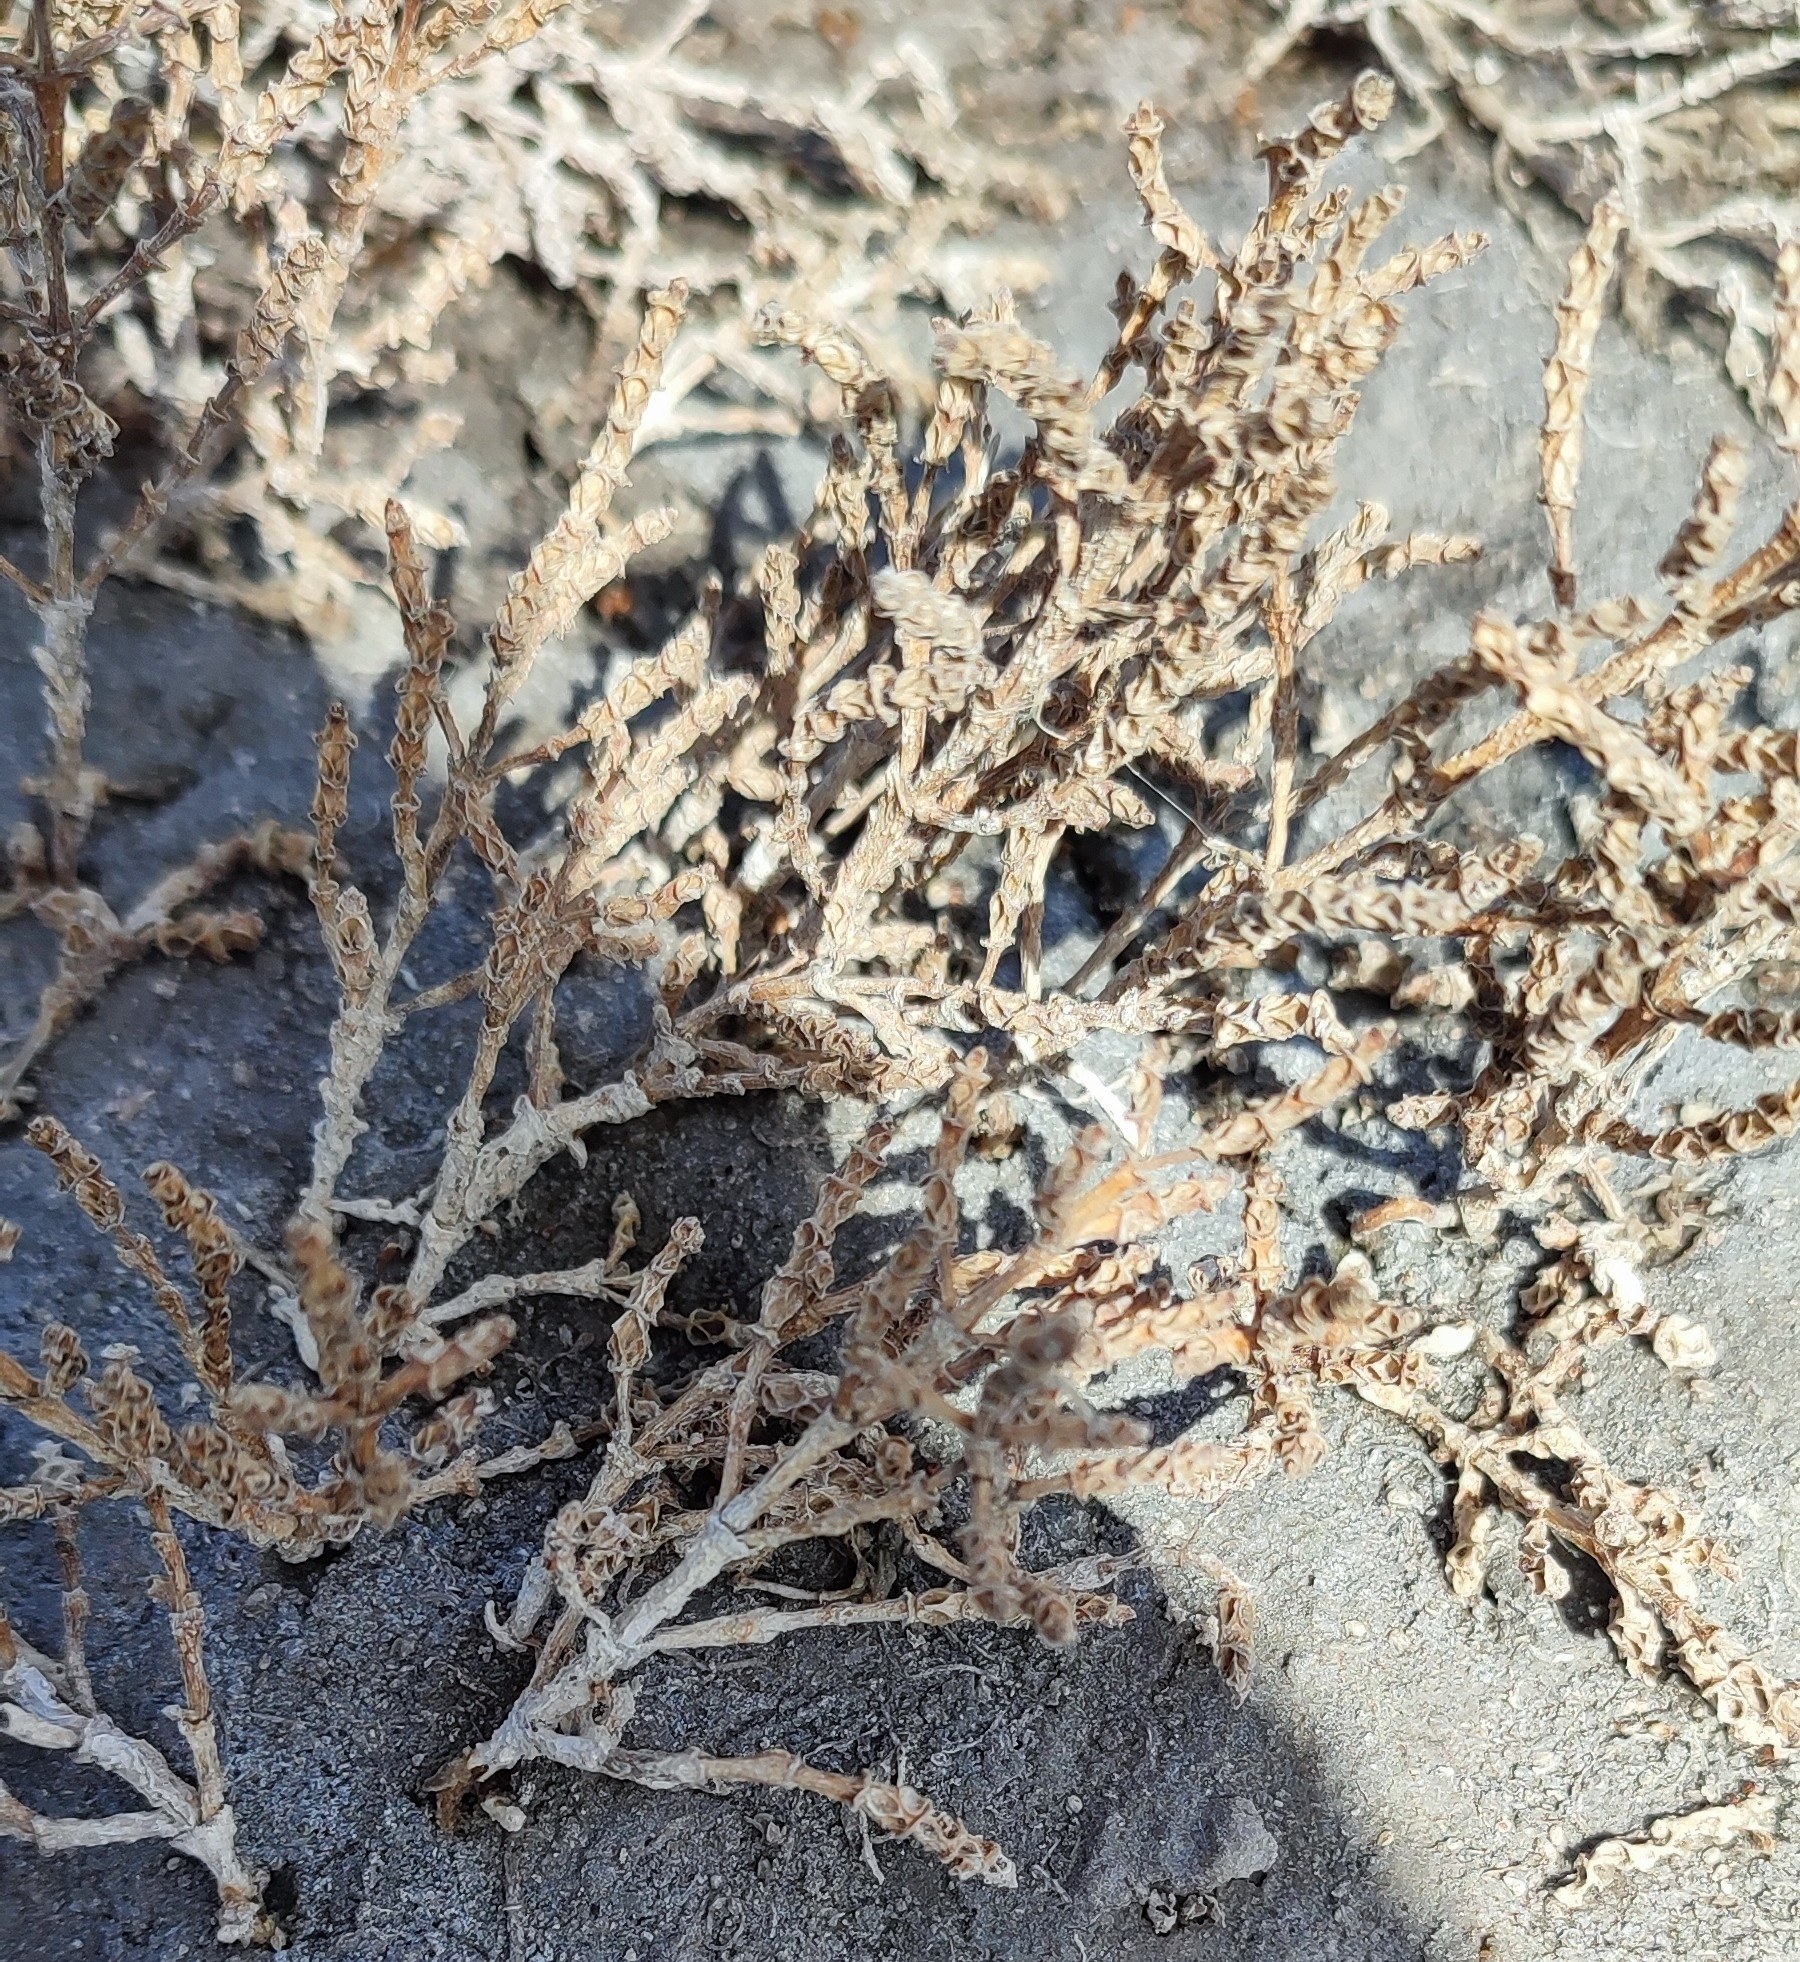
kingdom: Plantae
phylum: Tracheophyta
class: Magnoliopsida
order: Caryophyllales
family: Amaranthaceae
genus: Salicornia
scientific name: Salicornia perennans
